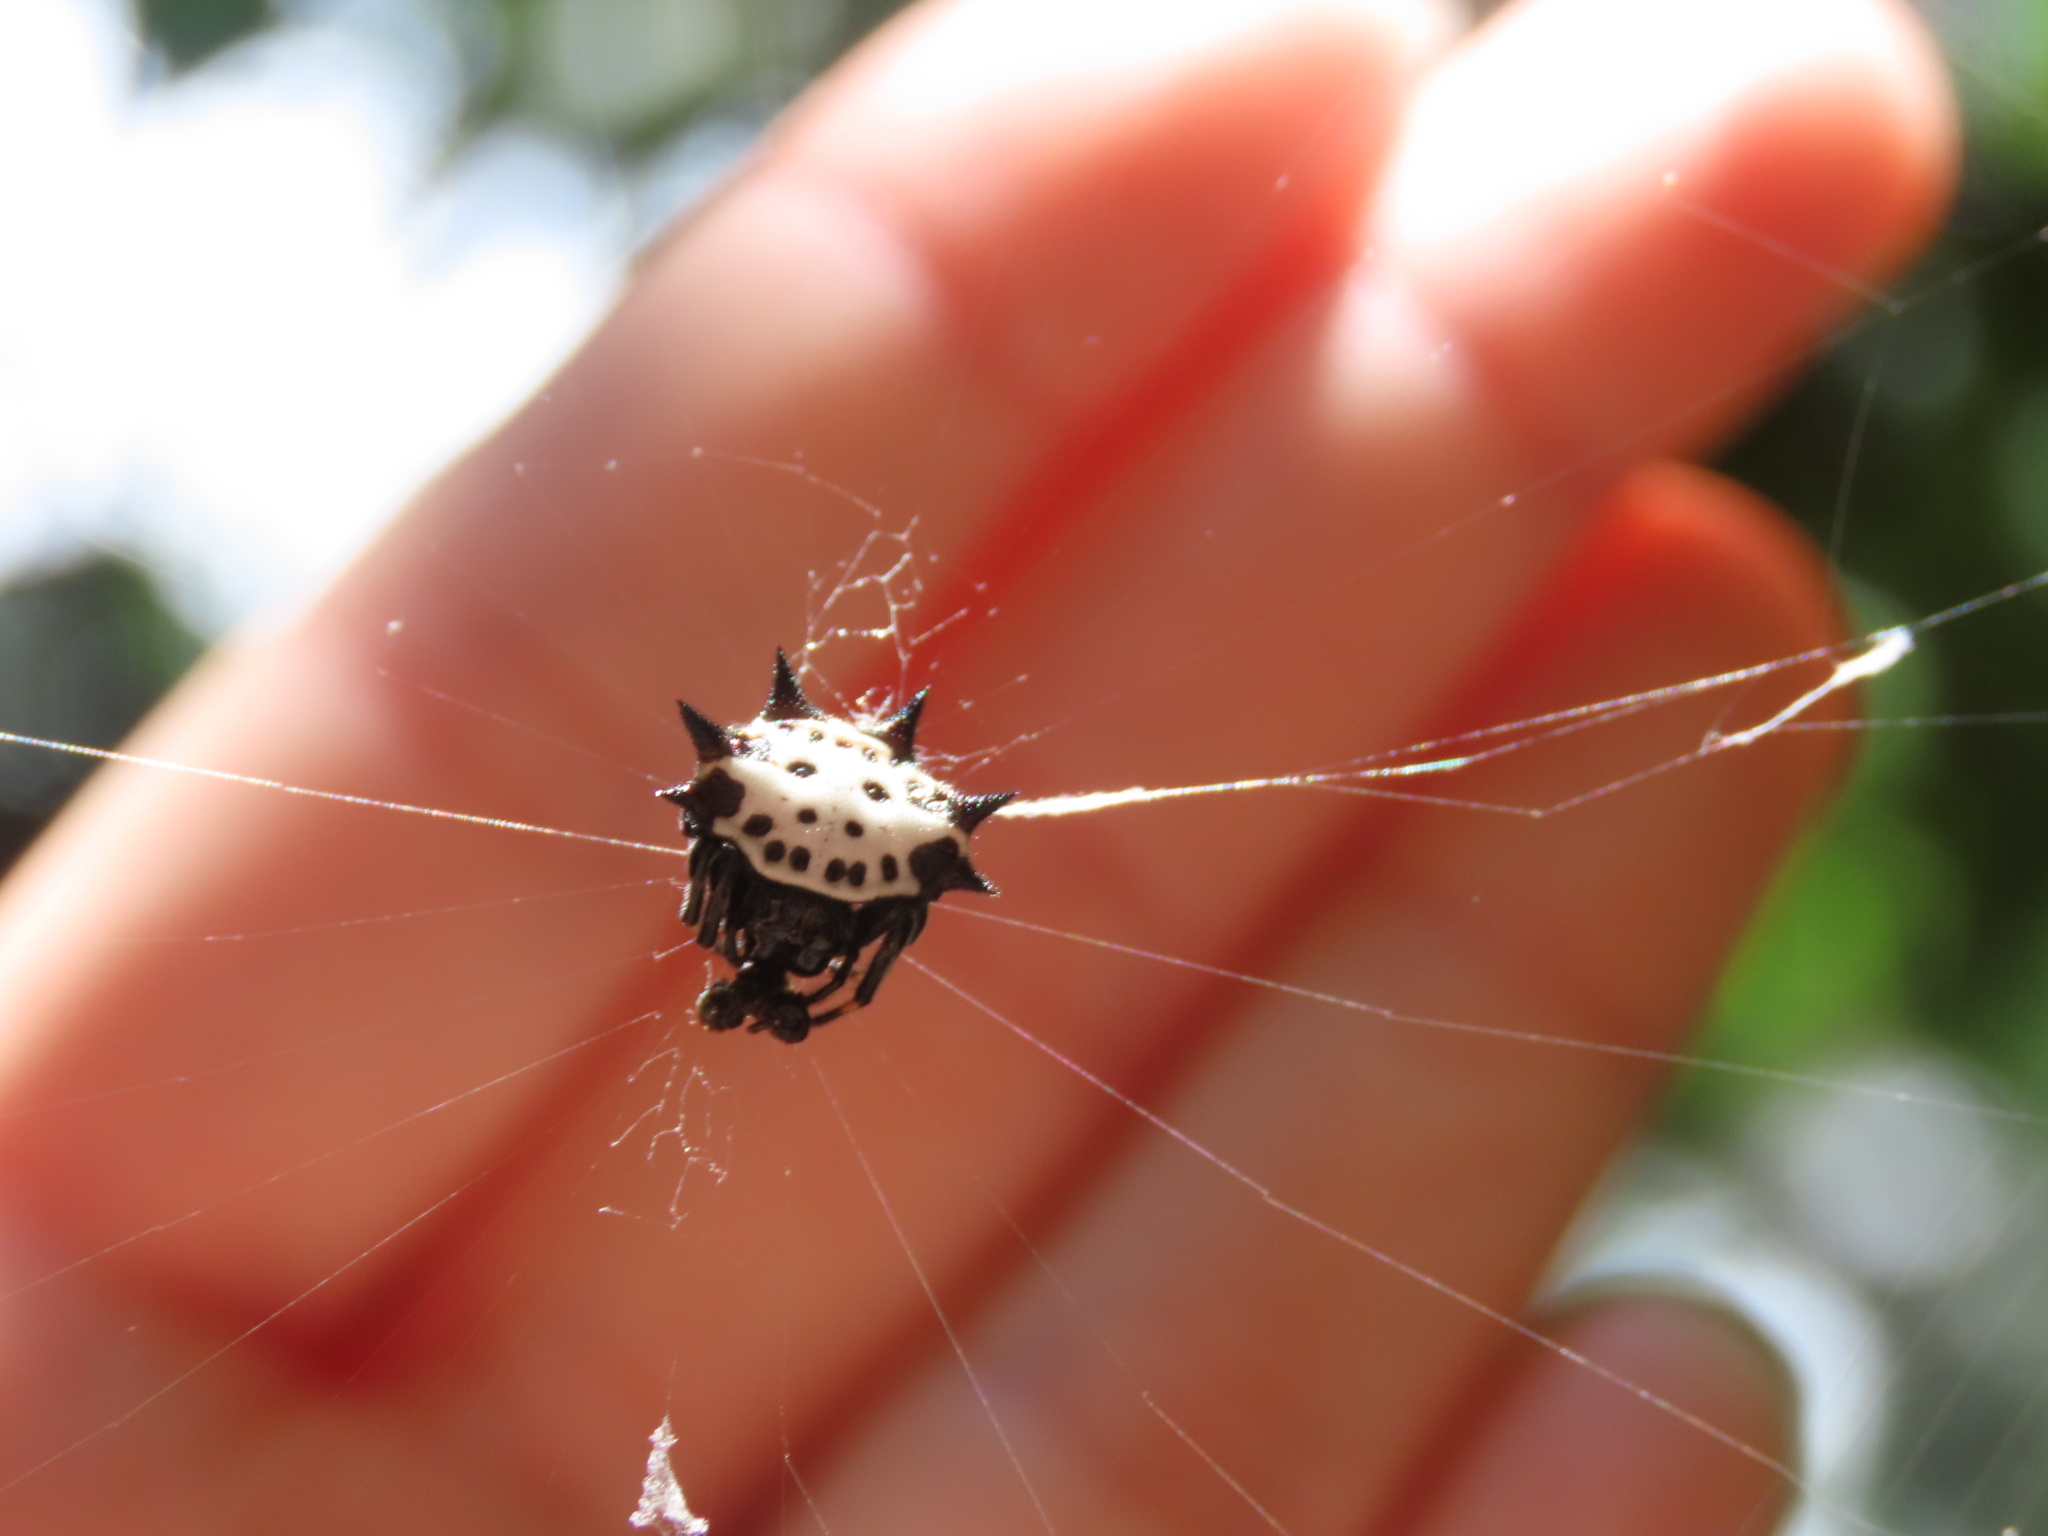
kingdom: Animalia
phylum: Arthropoda
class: Arachnida
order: Araneae
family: Araneidae
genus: Gasteracantha
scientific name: Gasteracantha cancriformis
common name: Orb weavers
